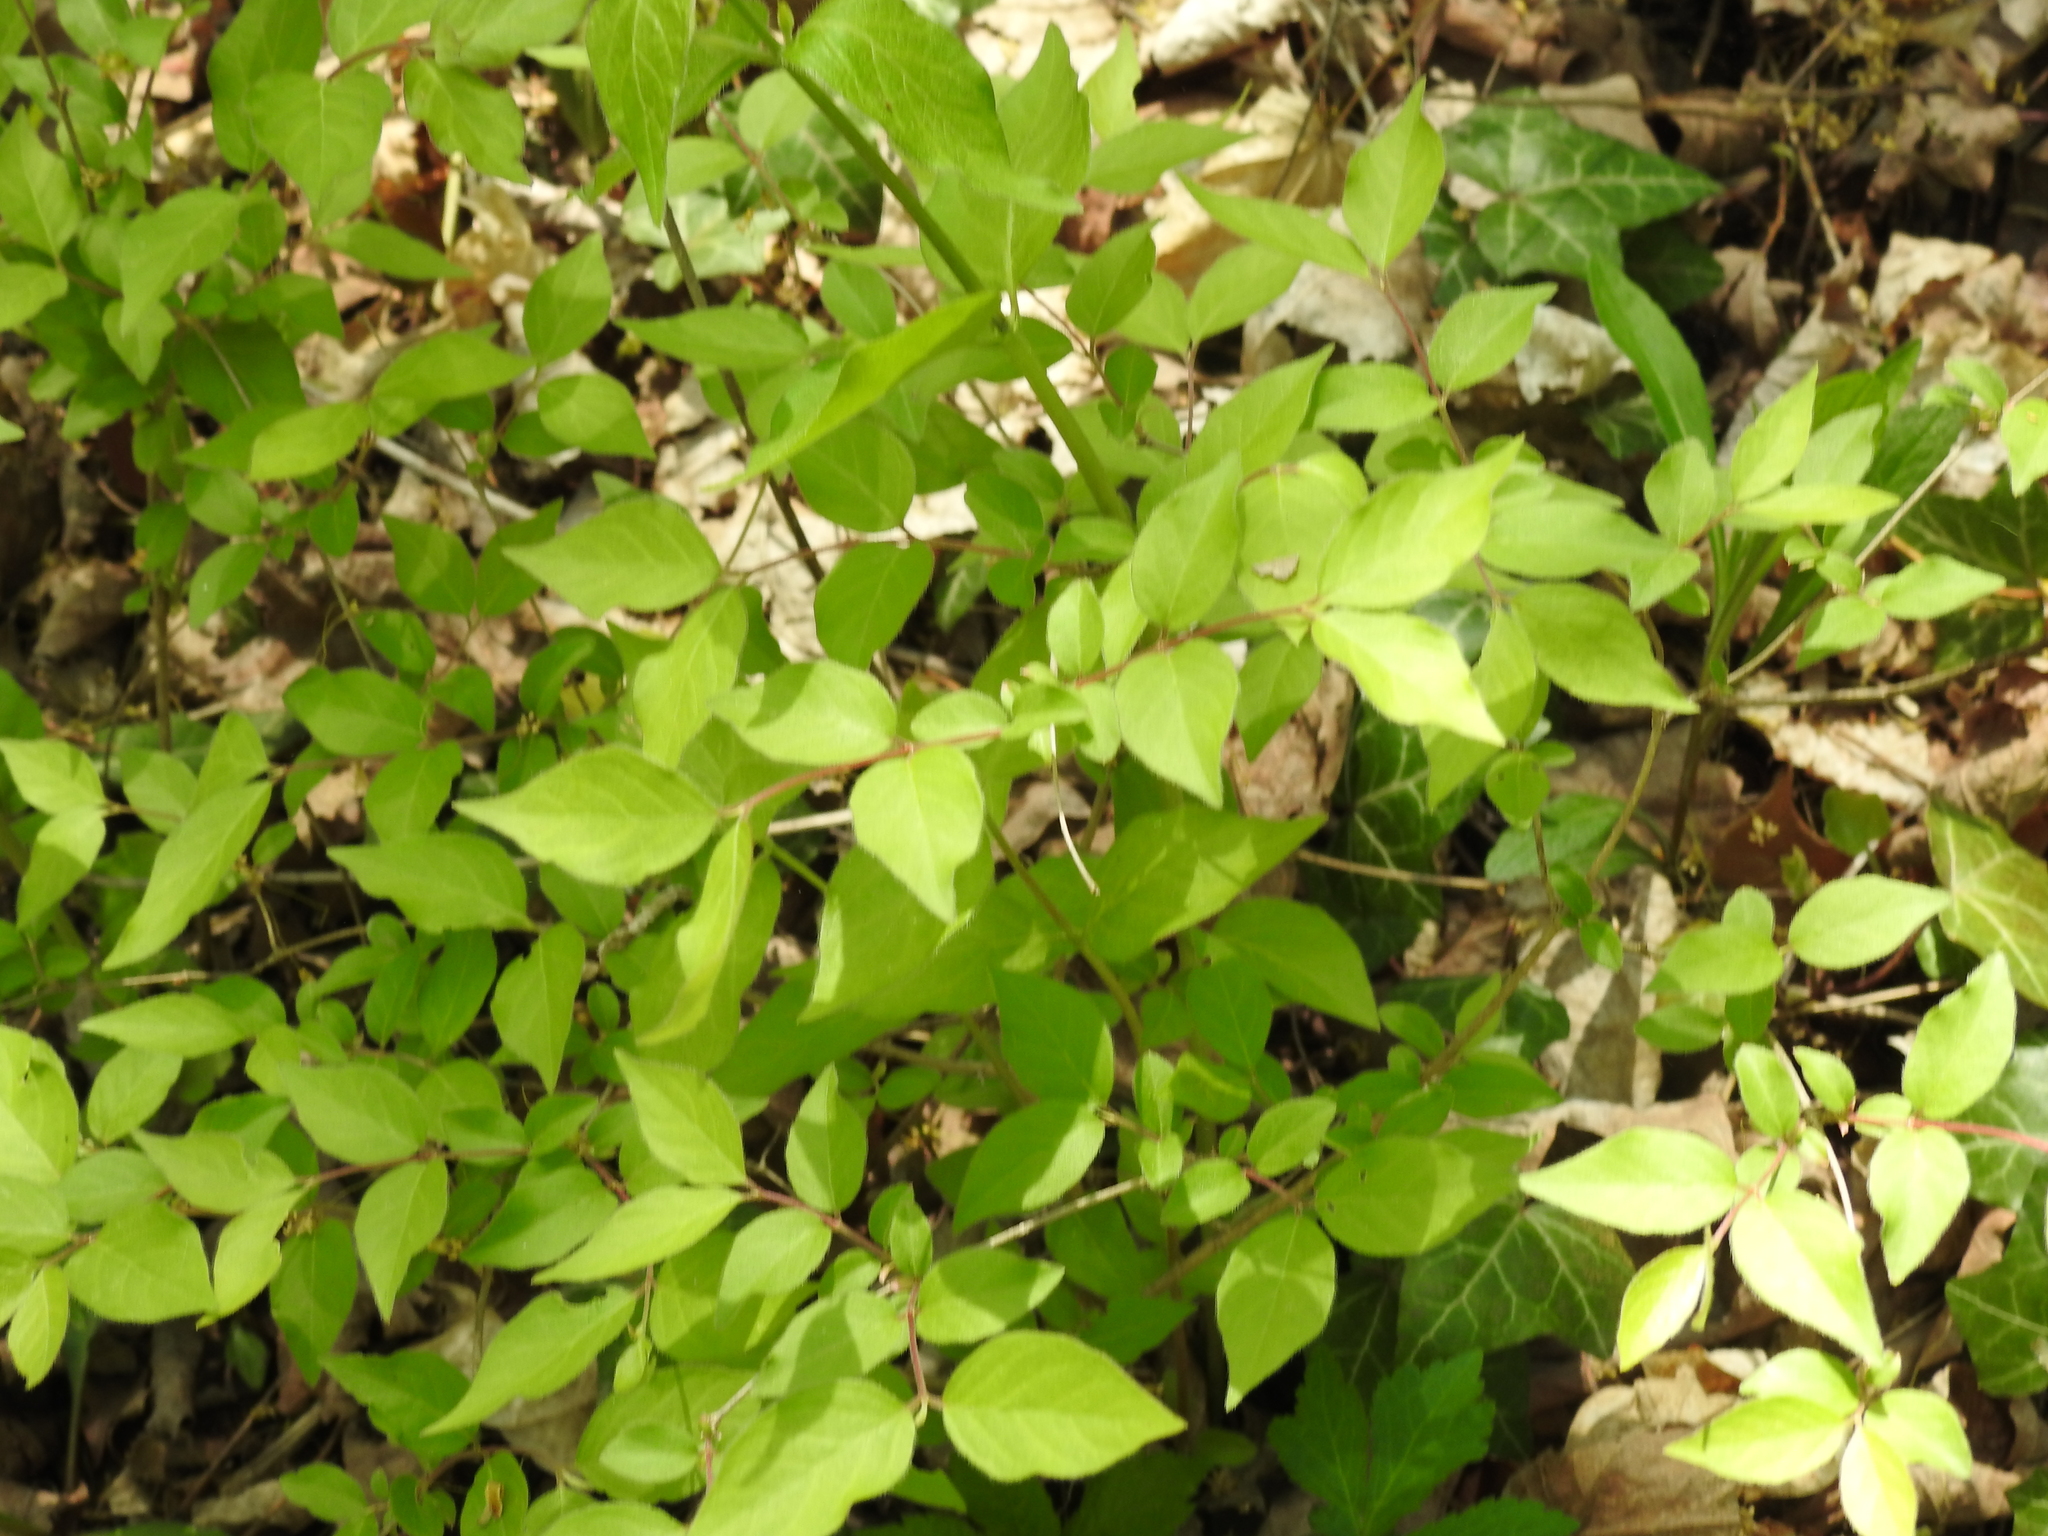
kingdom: Plantae
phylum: Tracheophyta
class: Magnoliopsida
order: Dipsacales
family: Caprifoliaceae
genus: Lonicera
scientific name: Lonicera maackii
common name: Amur honeysuckle
